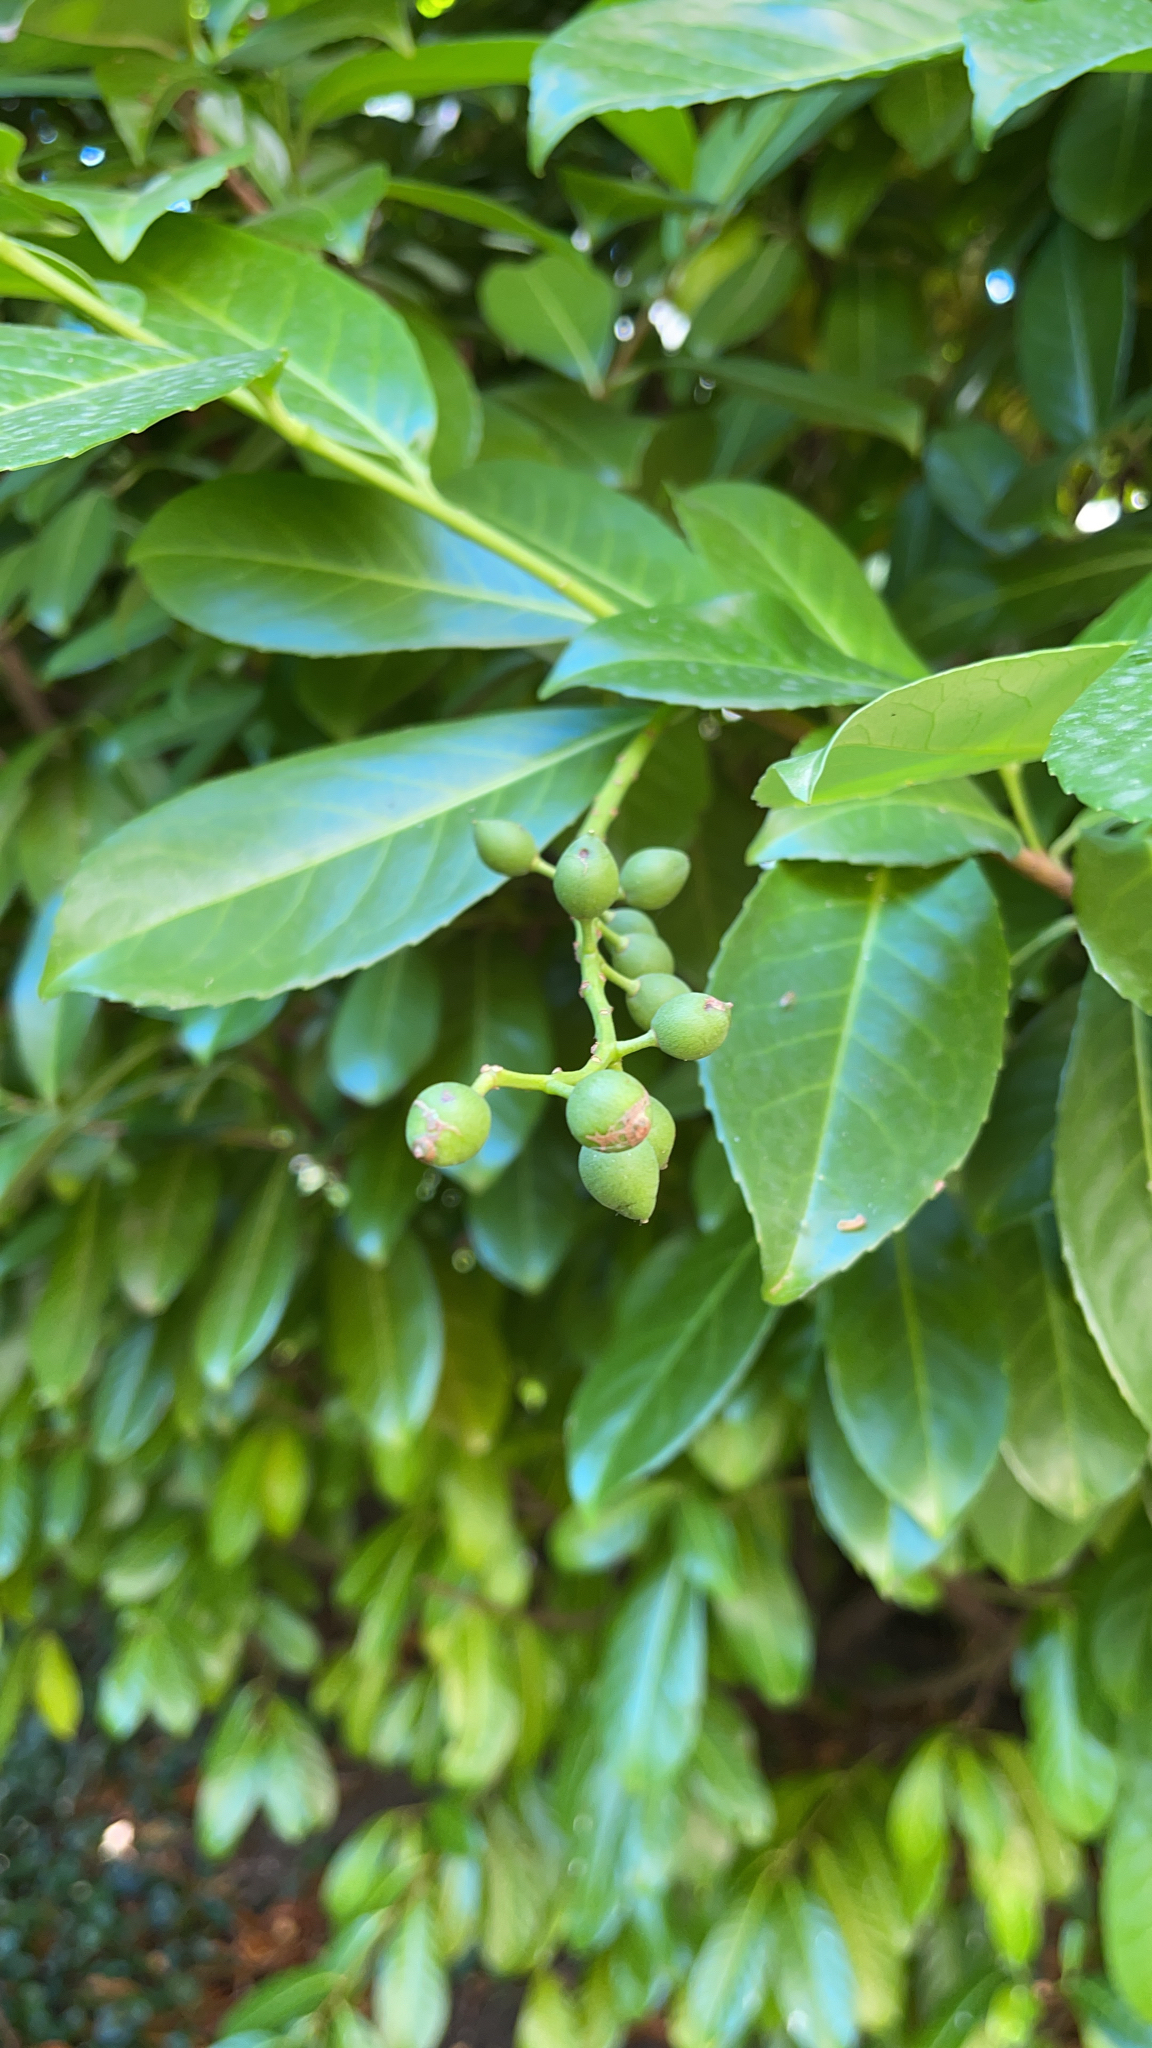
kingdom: Plantae
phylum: Tracheophyta
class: Magnoliopsida
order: Rosales
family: Rosaceae
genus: Prunus
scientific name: Prunus laurocerasus
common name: Cherry laurel
